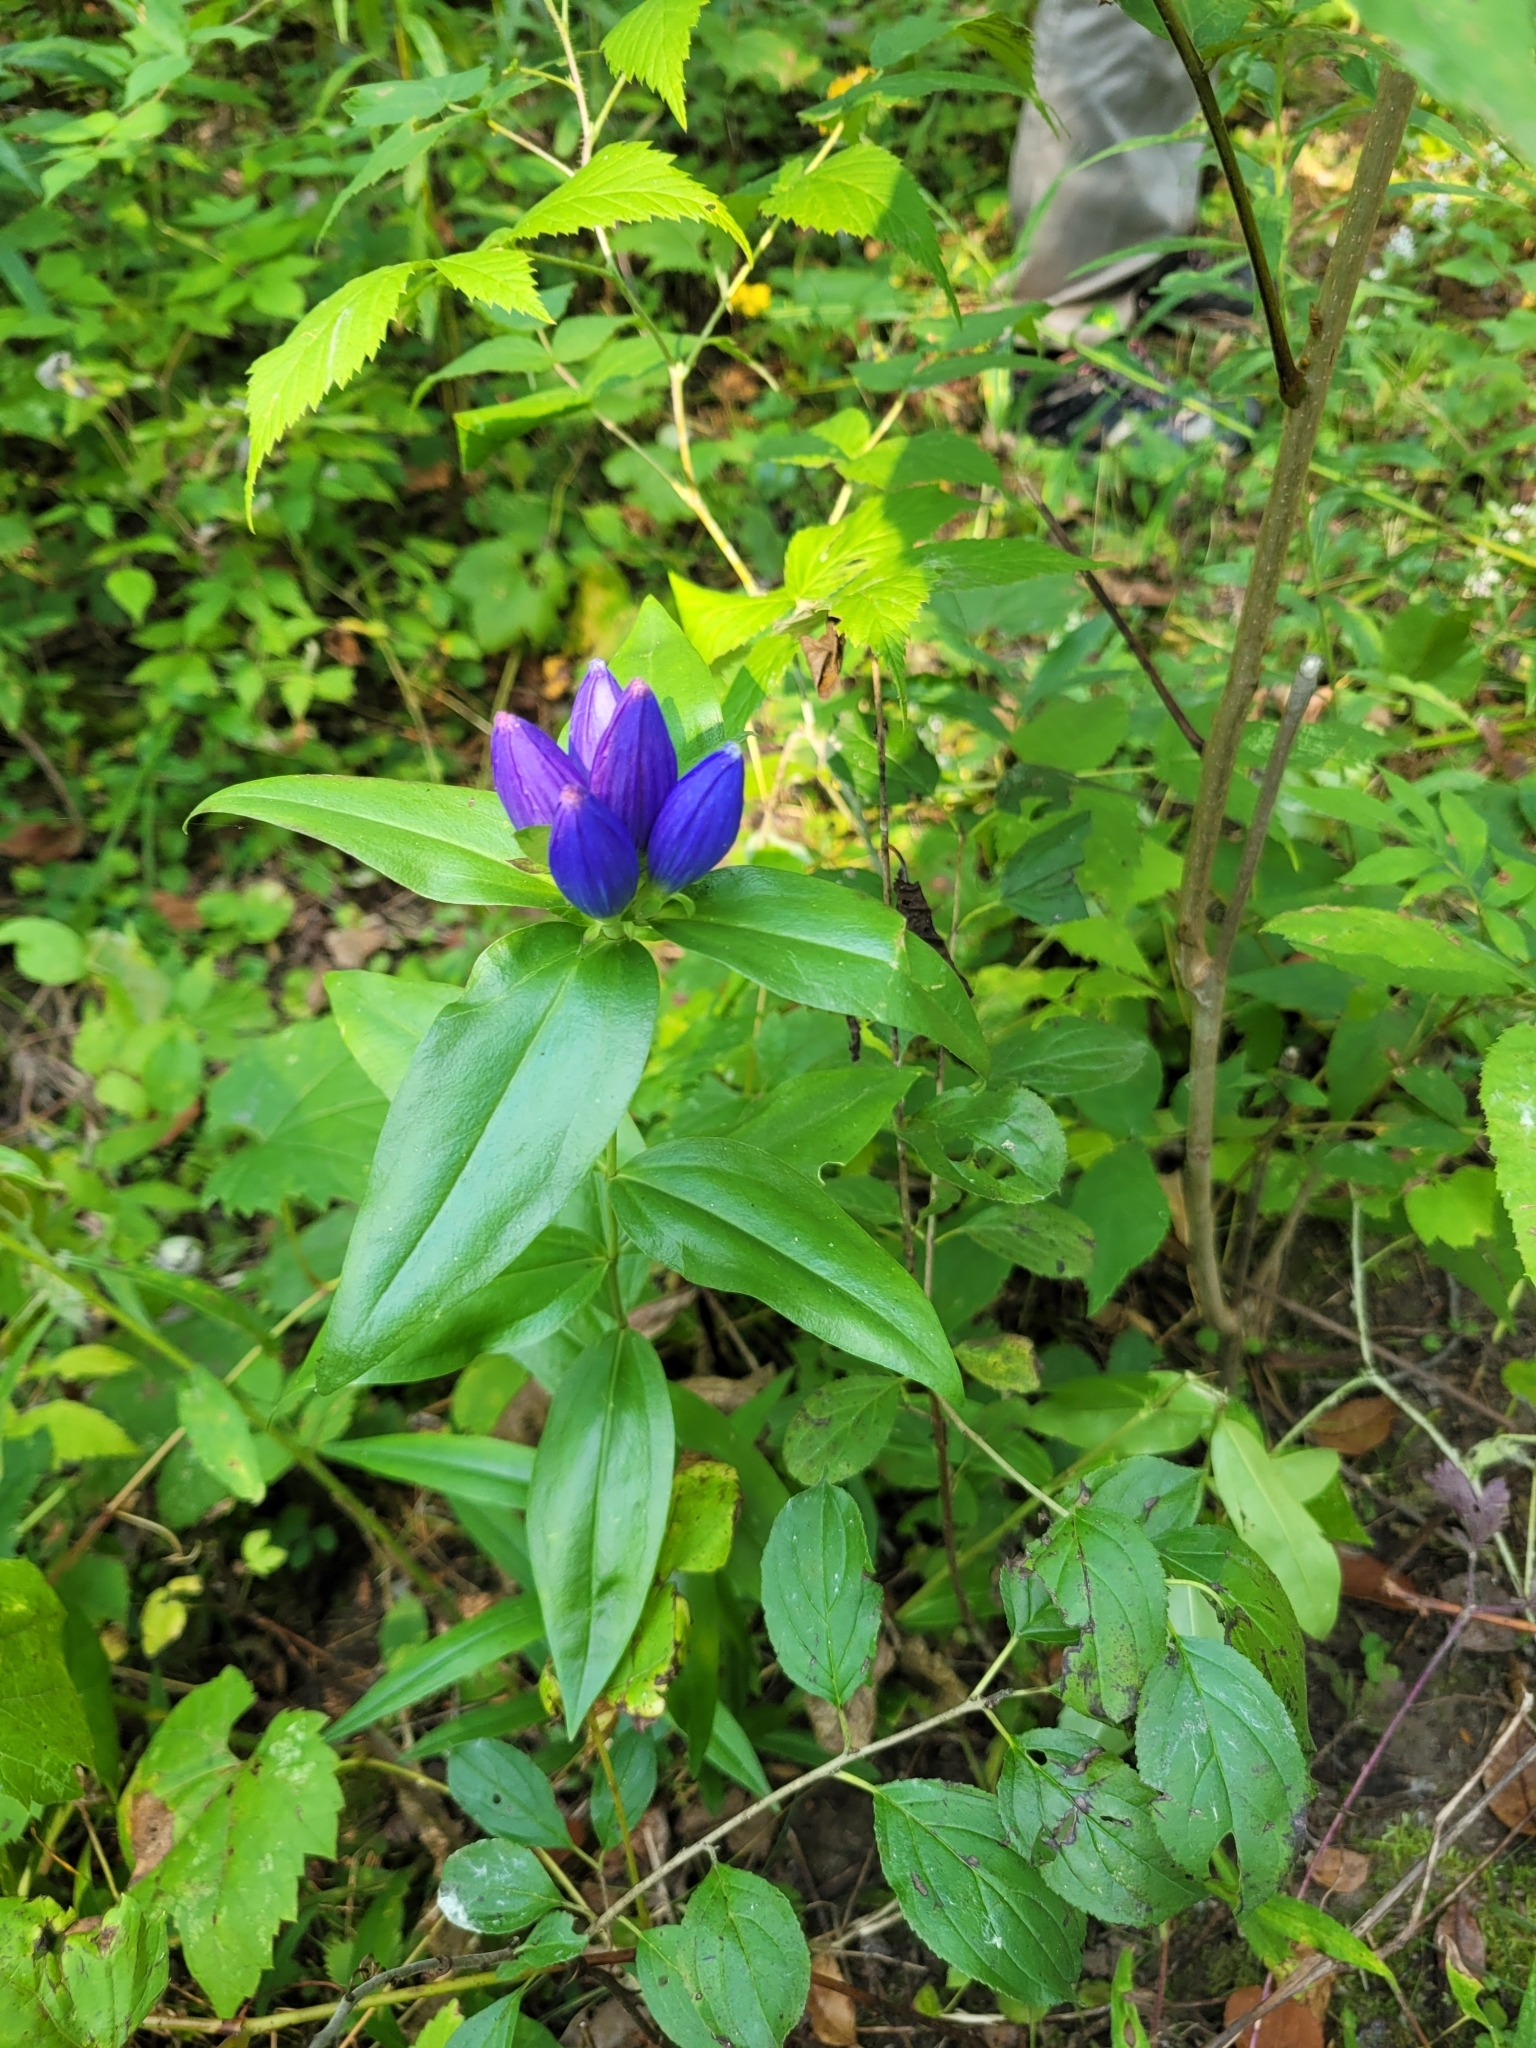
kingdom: Plantae
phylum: Tracheophyta
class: Magnoliopsida
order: Gentianales
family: Gentianaceae
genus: Gentiana
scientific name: Gentiana andrewsii
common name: Bottle gentian
